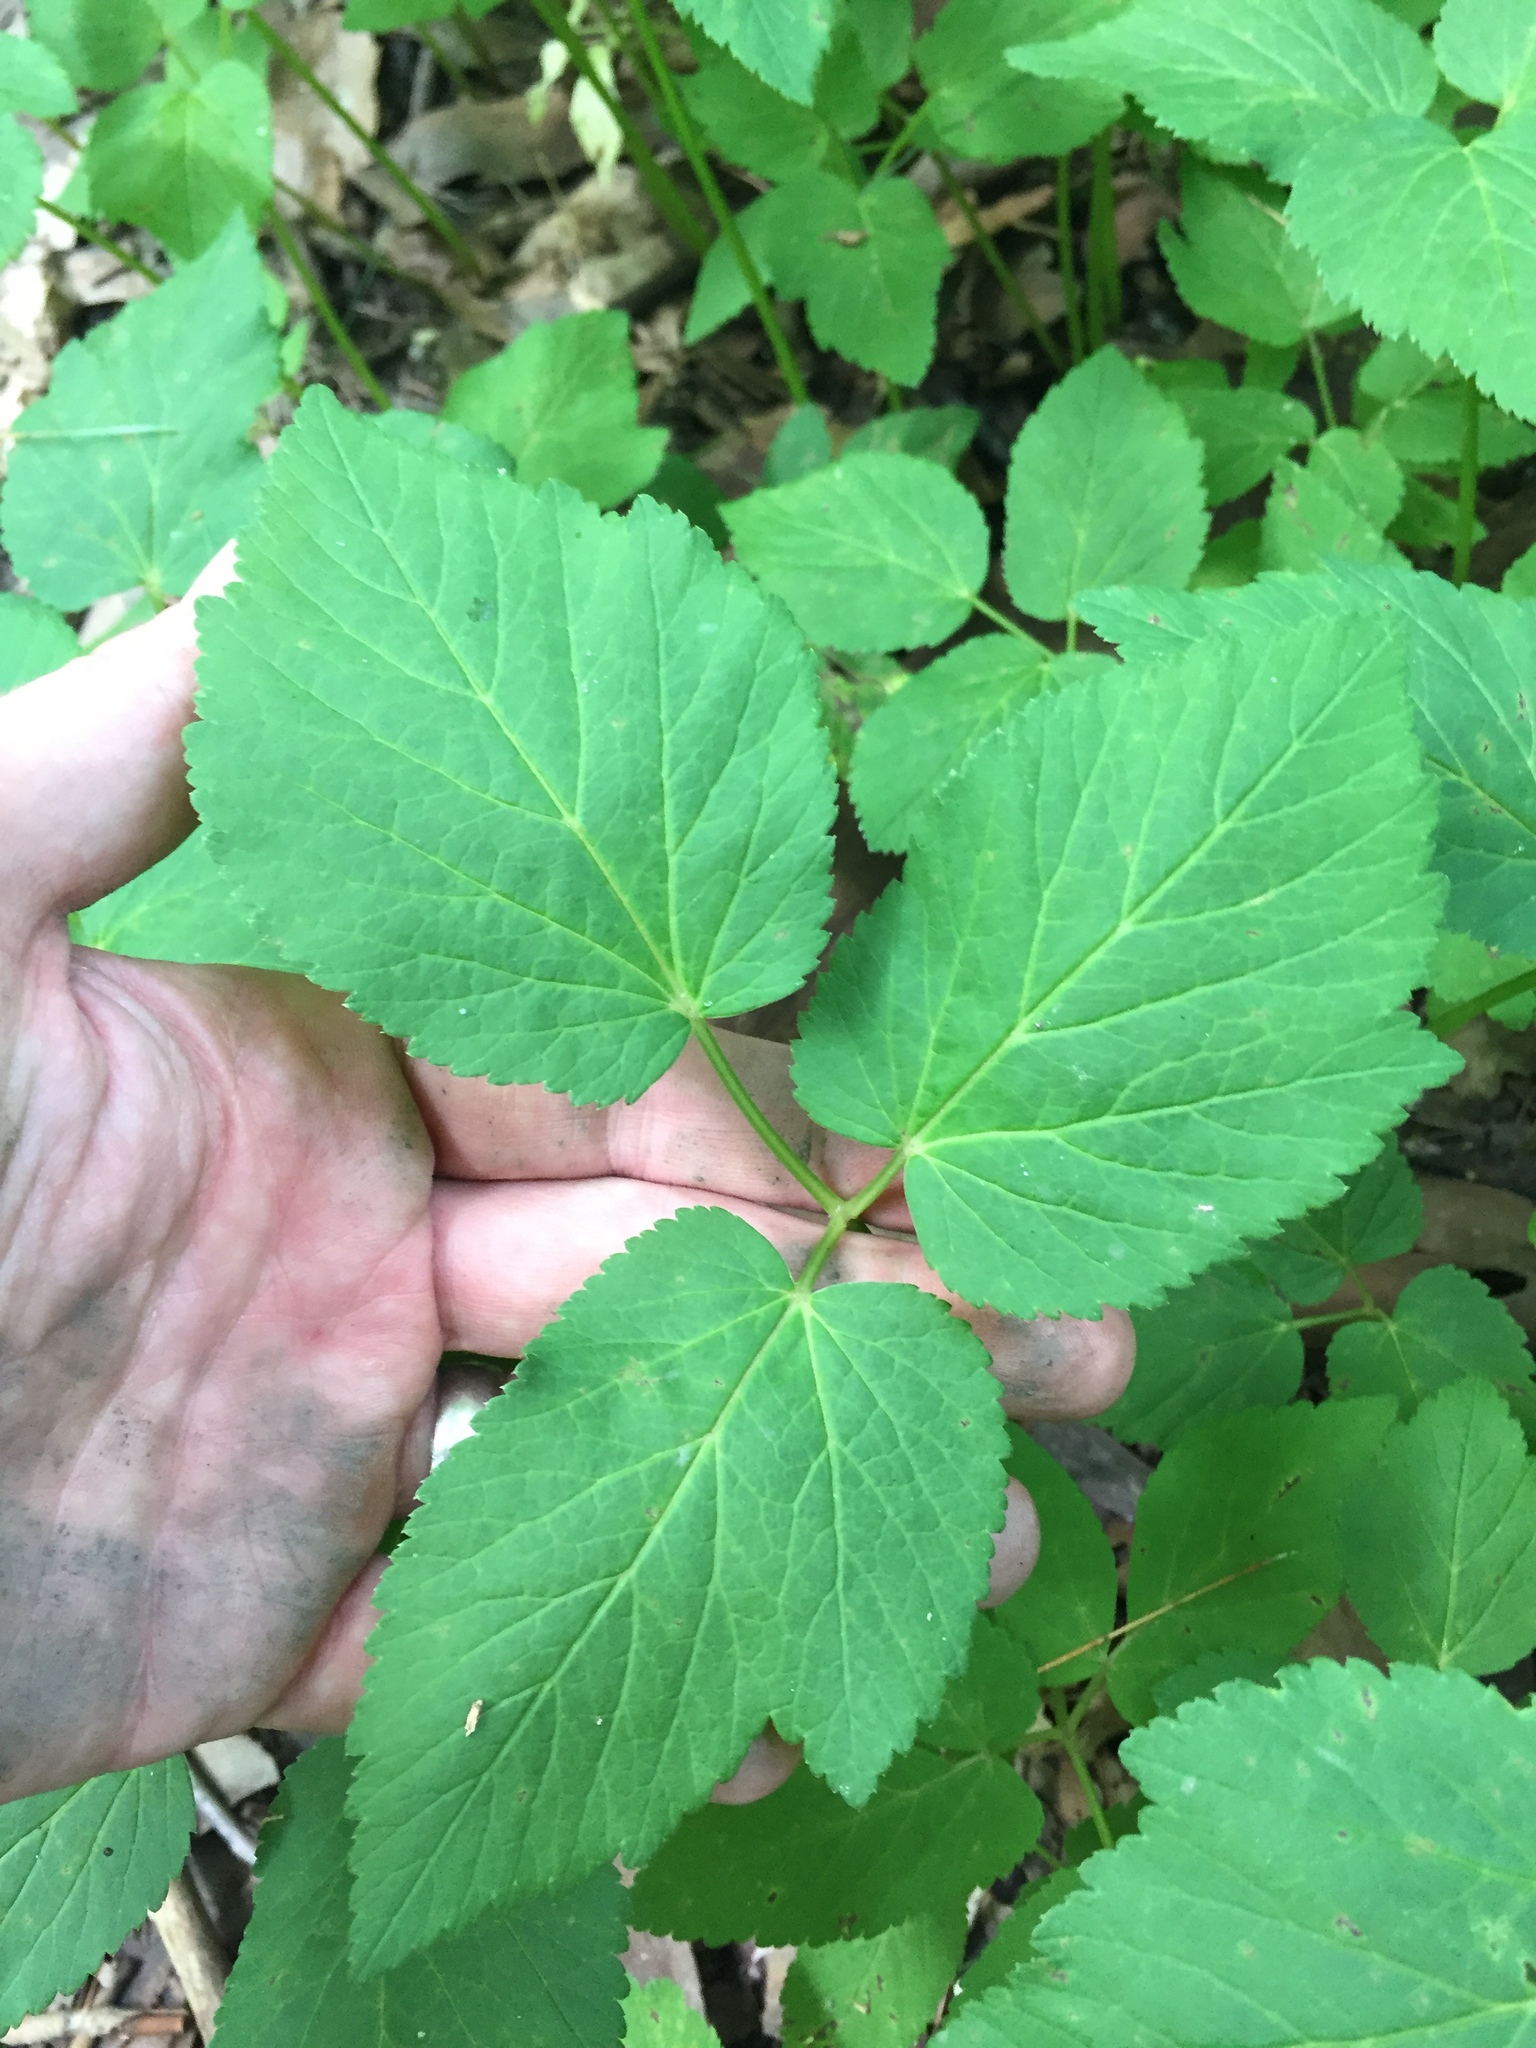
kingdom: Plantae
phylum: Tracheophyta
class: Magnoliopsida
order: Apiales
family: Apiaceae
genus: Aegopodium
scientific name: Aegopodium podagraria
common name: Ground-elder
